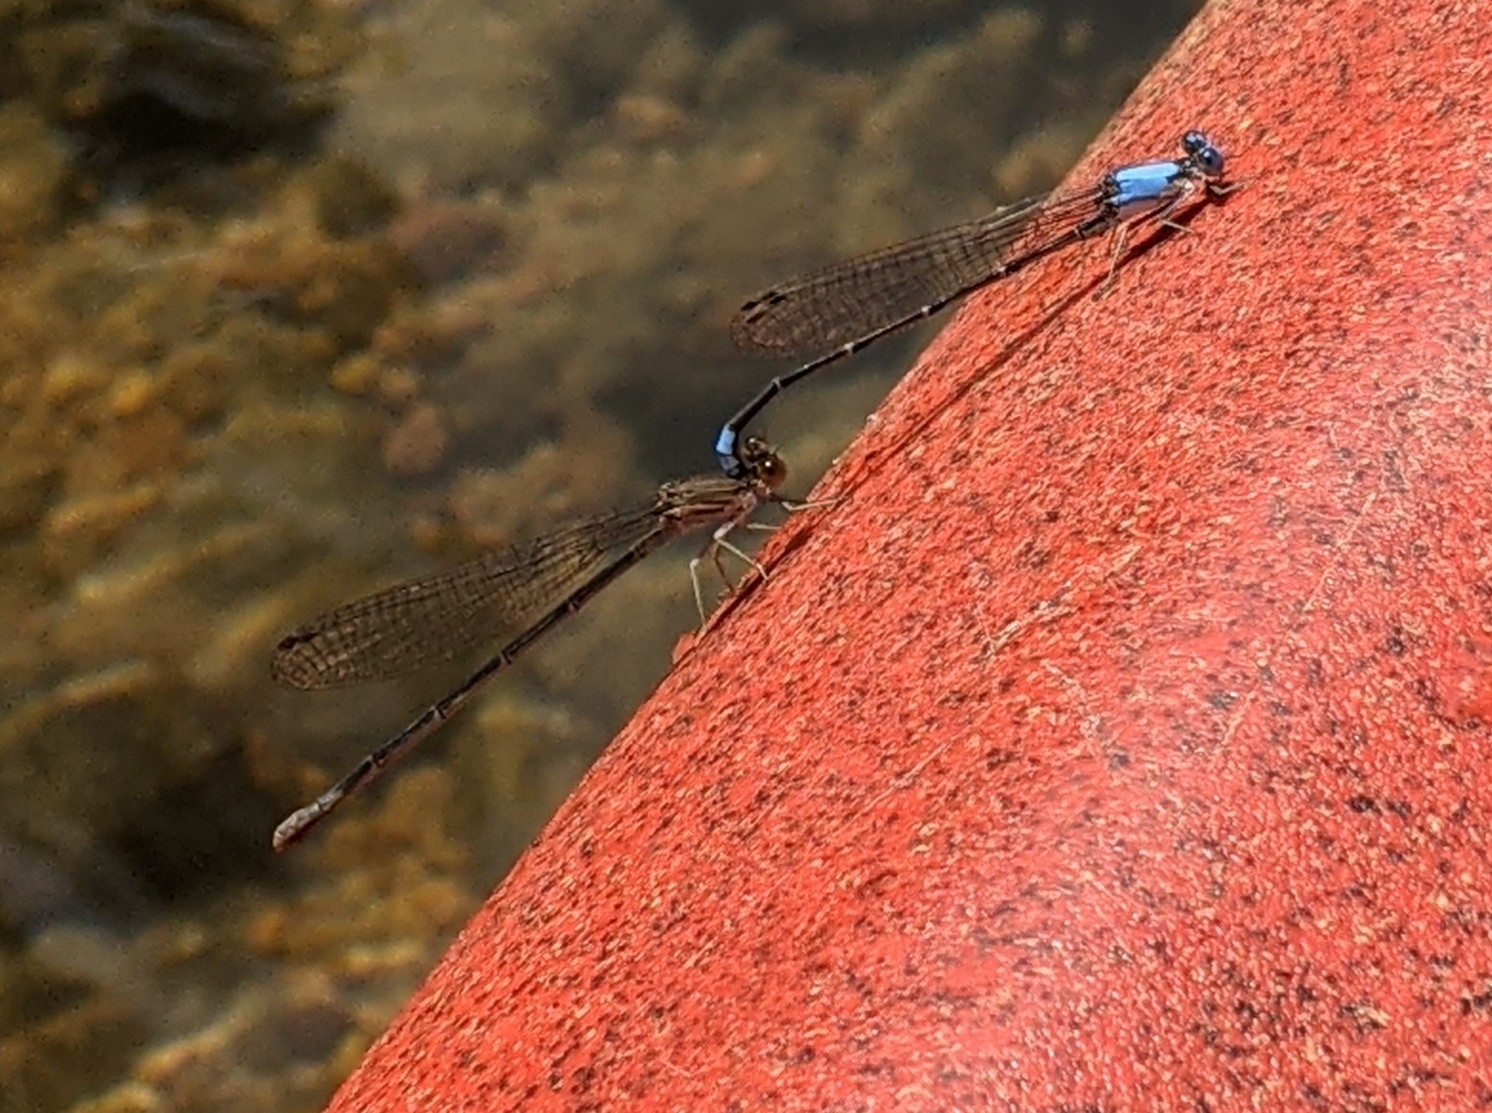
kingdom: Animalia
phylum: Arthropoda
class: Insecta
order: Odonata
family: Coenagrionidae
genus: Argia
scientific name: Argia apicalis
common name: Blue-fronted dancer
